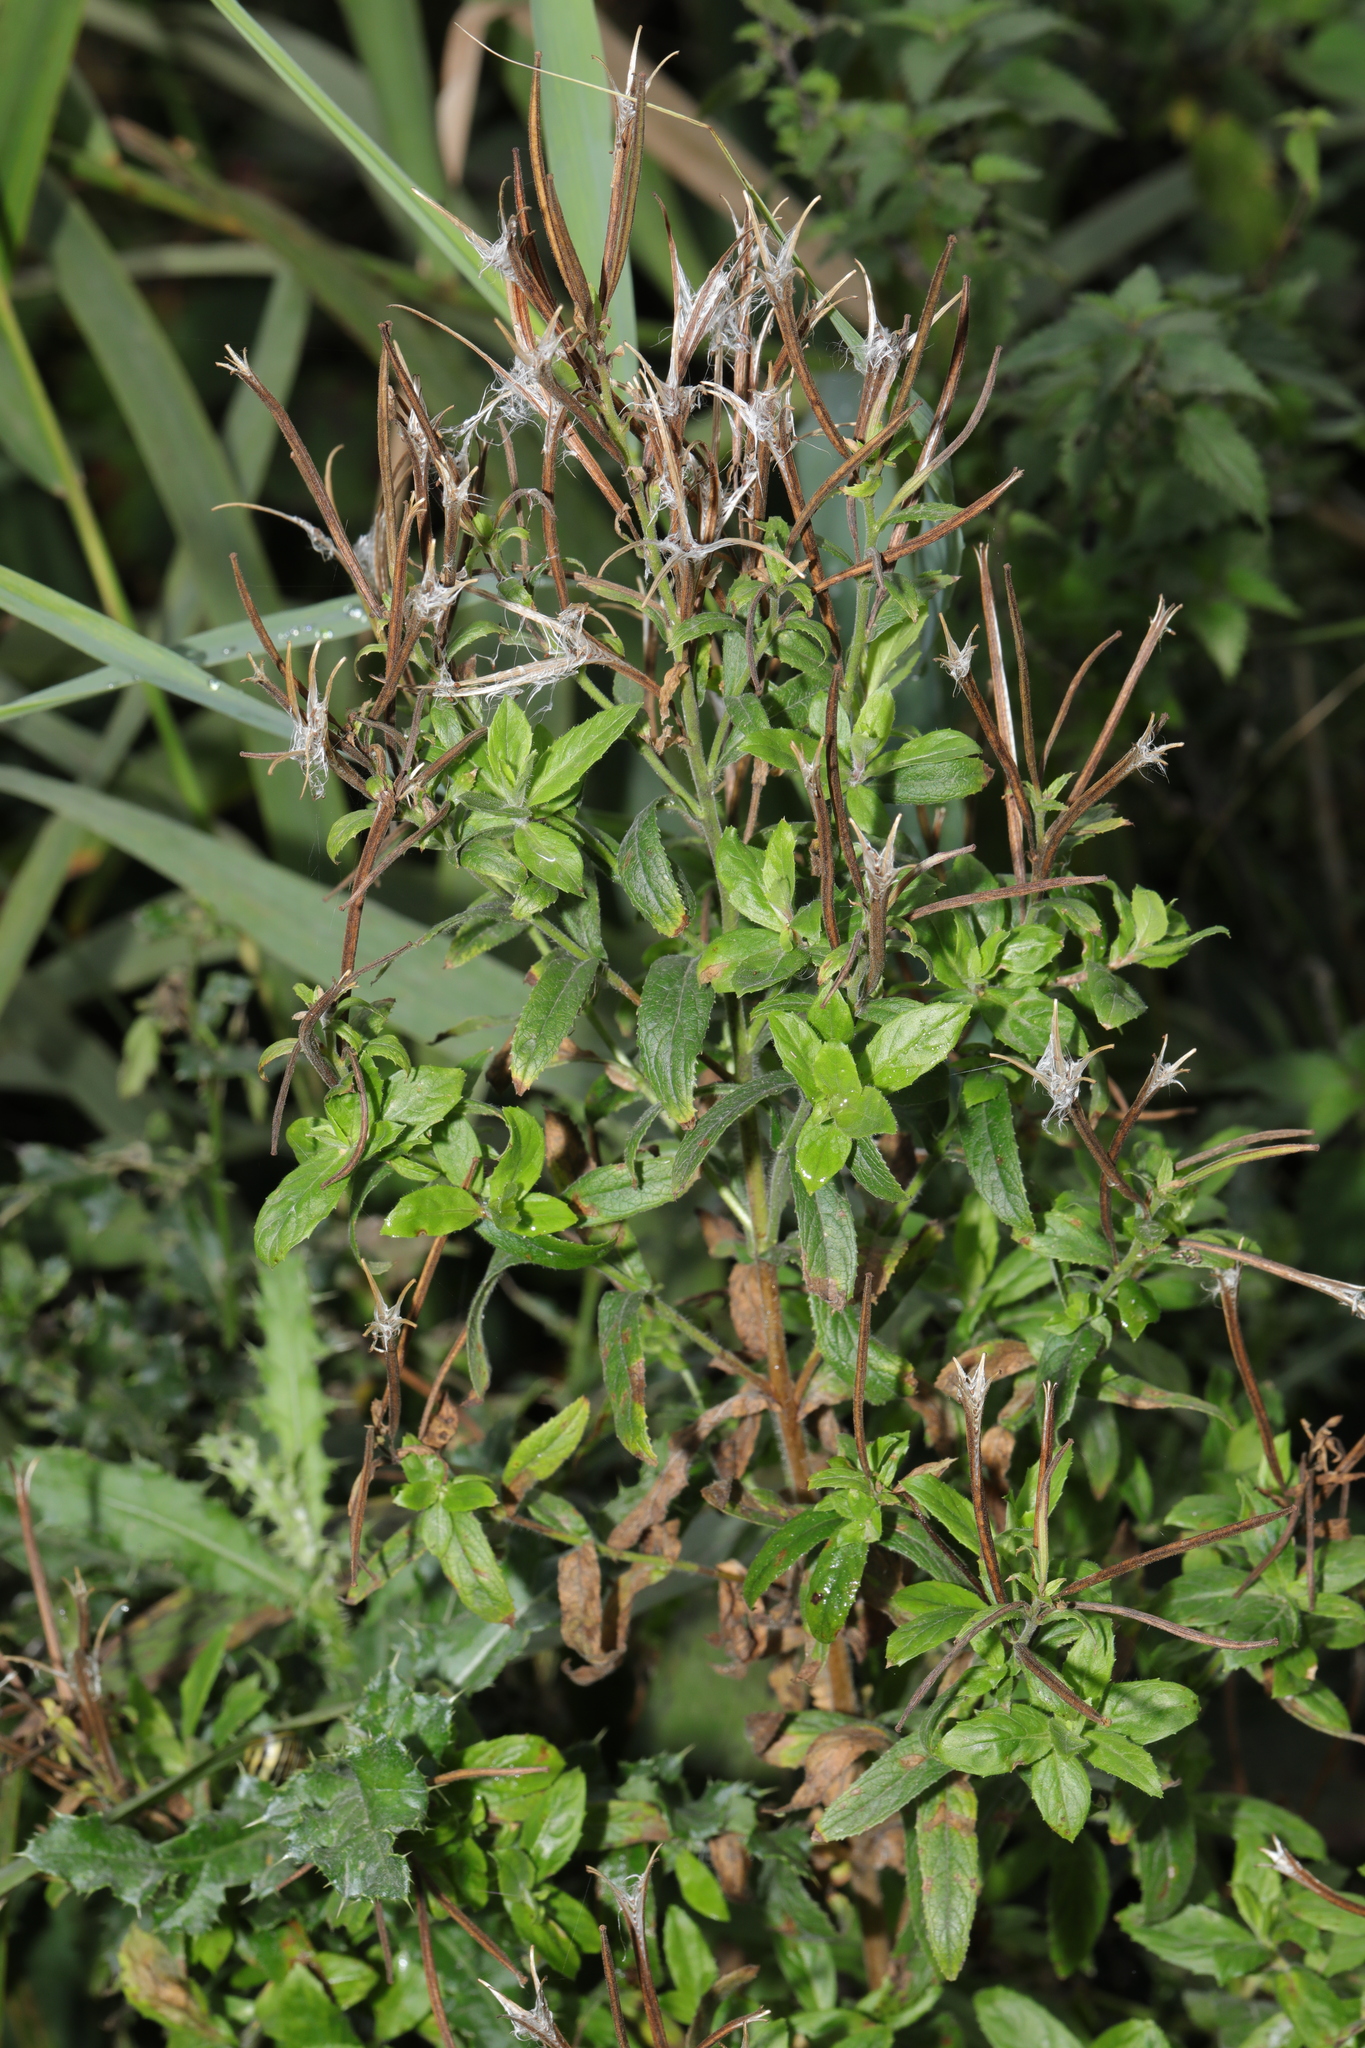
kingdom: Plantae
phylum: Tracheophyta
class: Magnoliopsida
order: Myrtales
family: Onagraceae
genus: Epilobium
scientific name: Epilobium hirsutum
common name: Great willowherb
